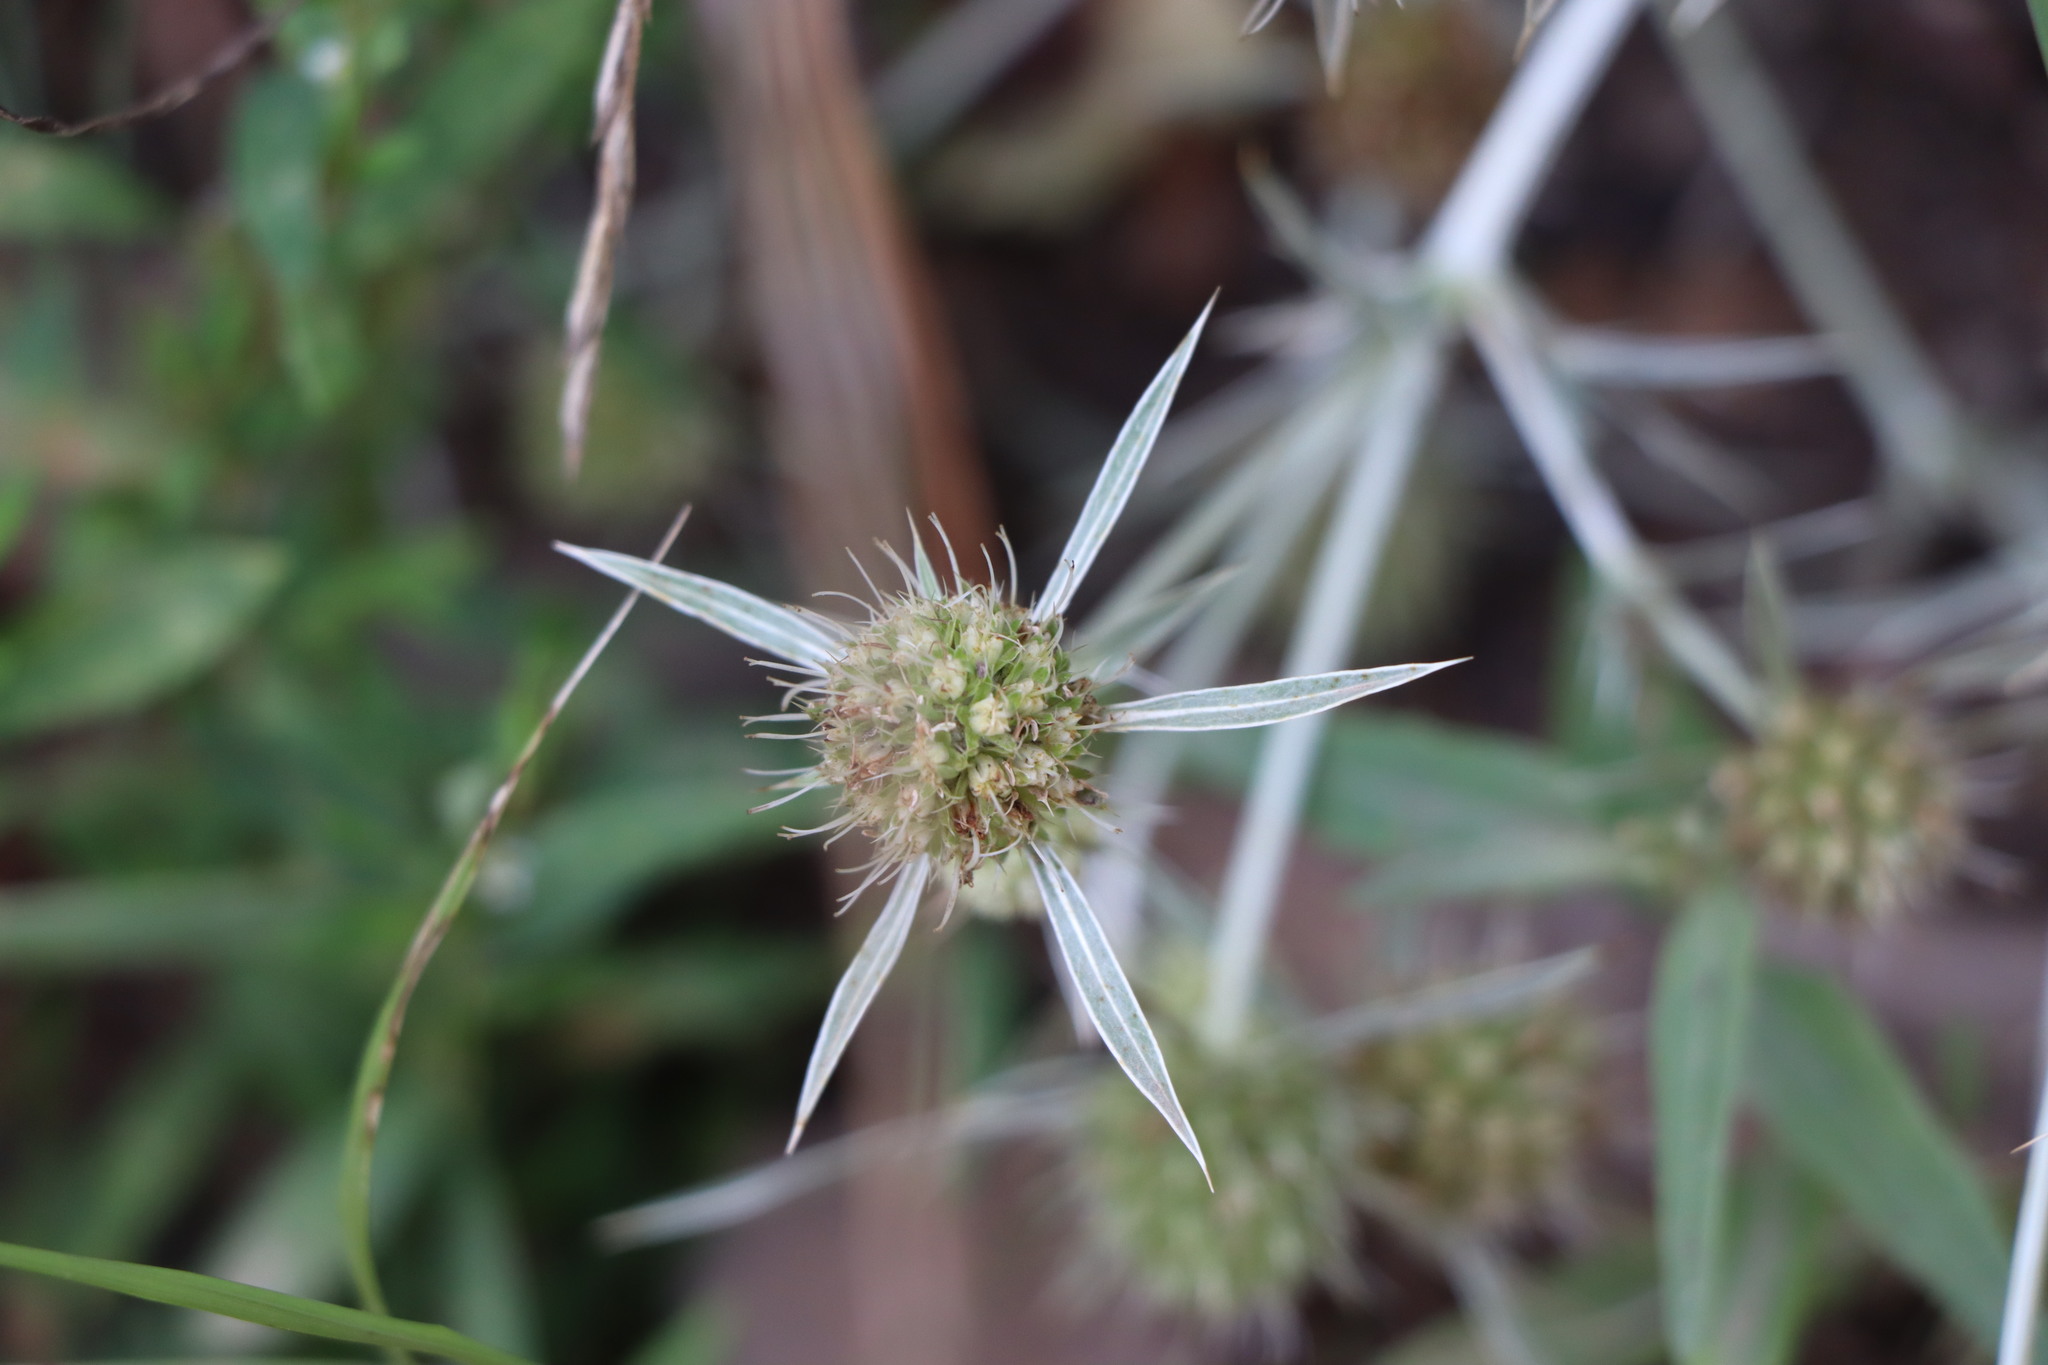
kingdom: Plantae
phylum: Tracheophyta
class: Magnoliopsida
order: Apiales
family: Apiaceae
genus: Eryngium
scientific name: Eryngium campestre
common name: Field eryngo
